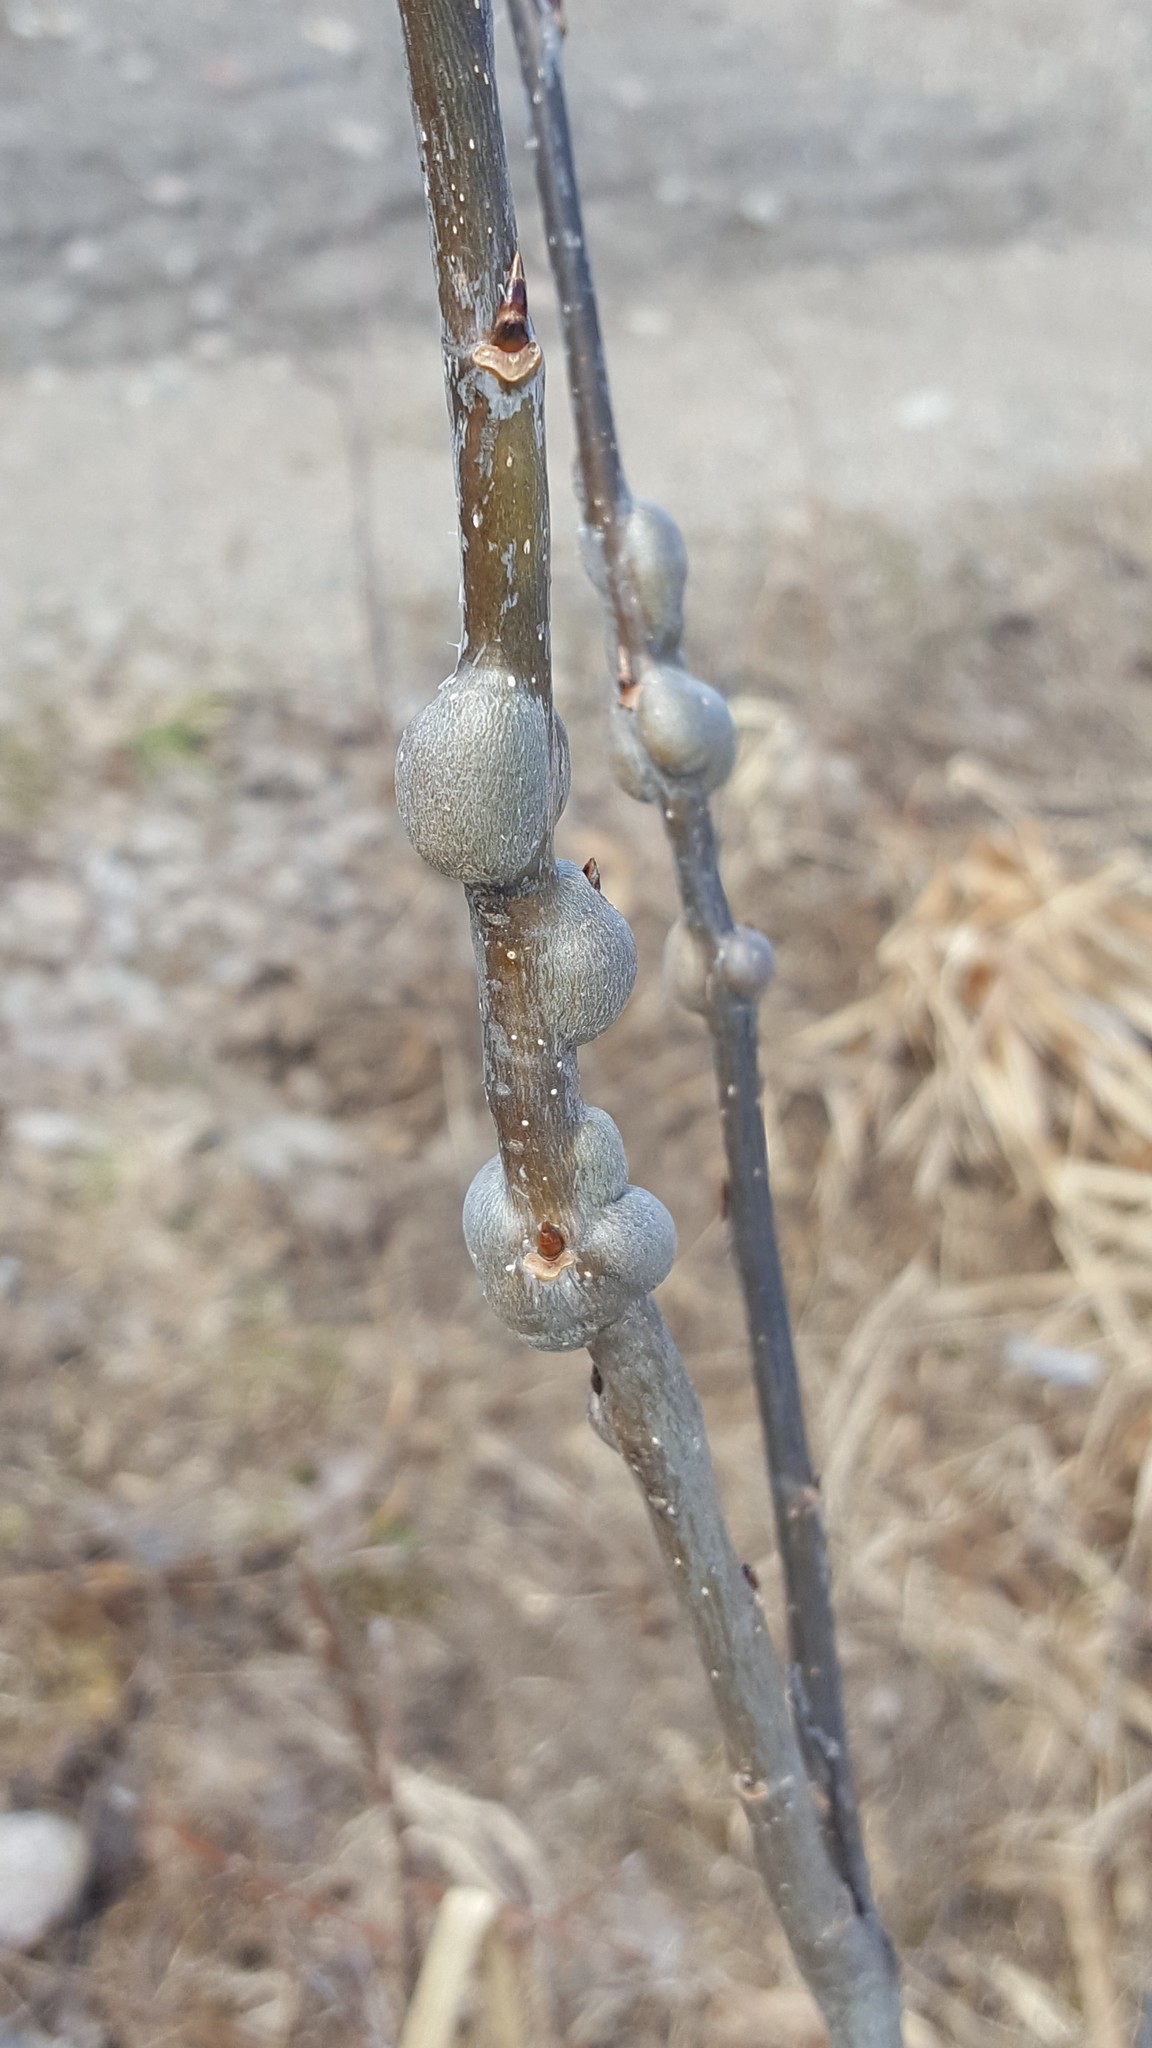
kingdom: Animalia
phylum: Arthropoda
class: Insecta
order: Diptera
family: Agromyzidae
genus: Euhexomyza
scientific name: Euhexomyza schineri
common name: Poplar twiggall fly
